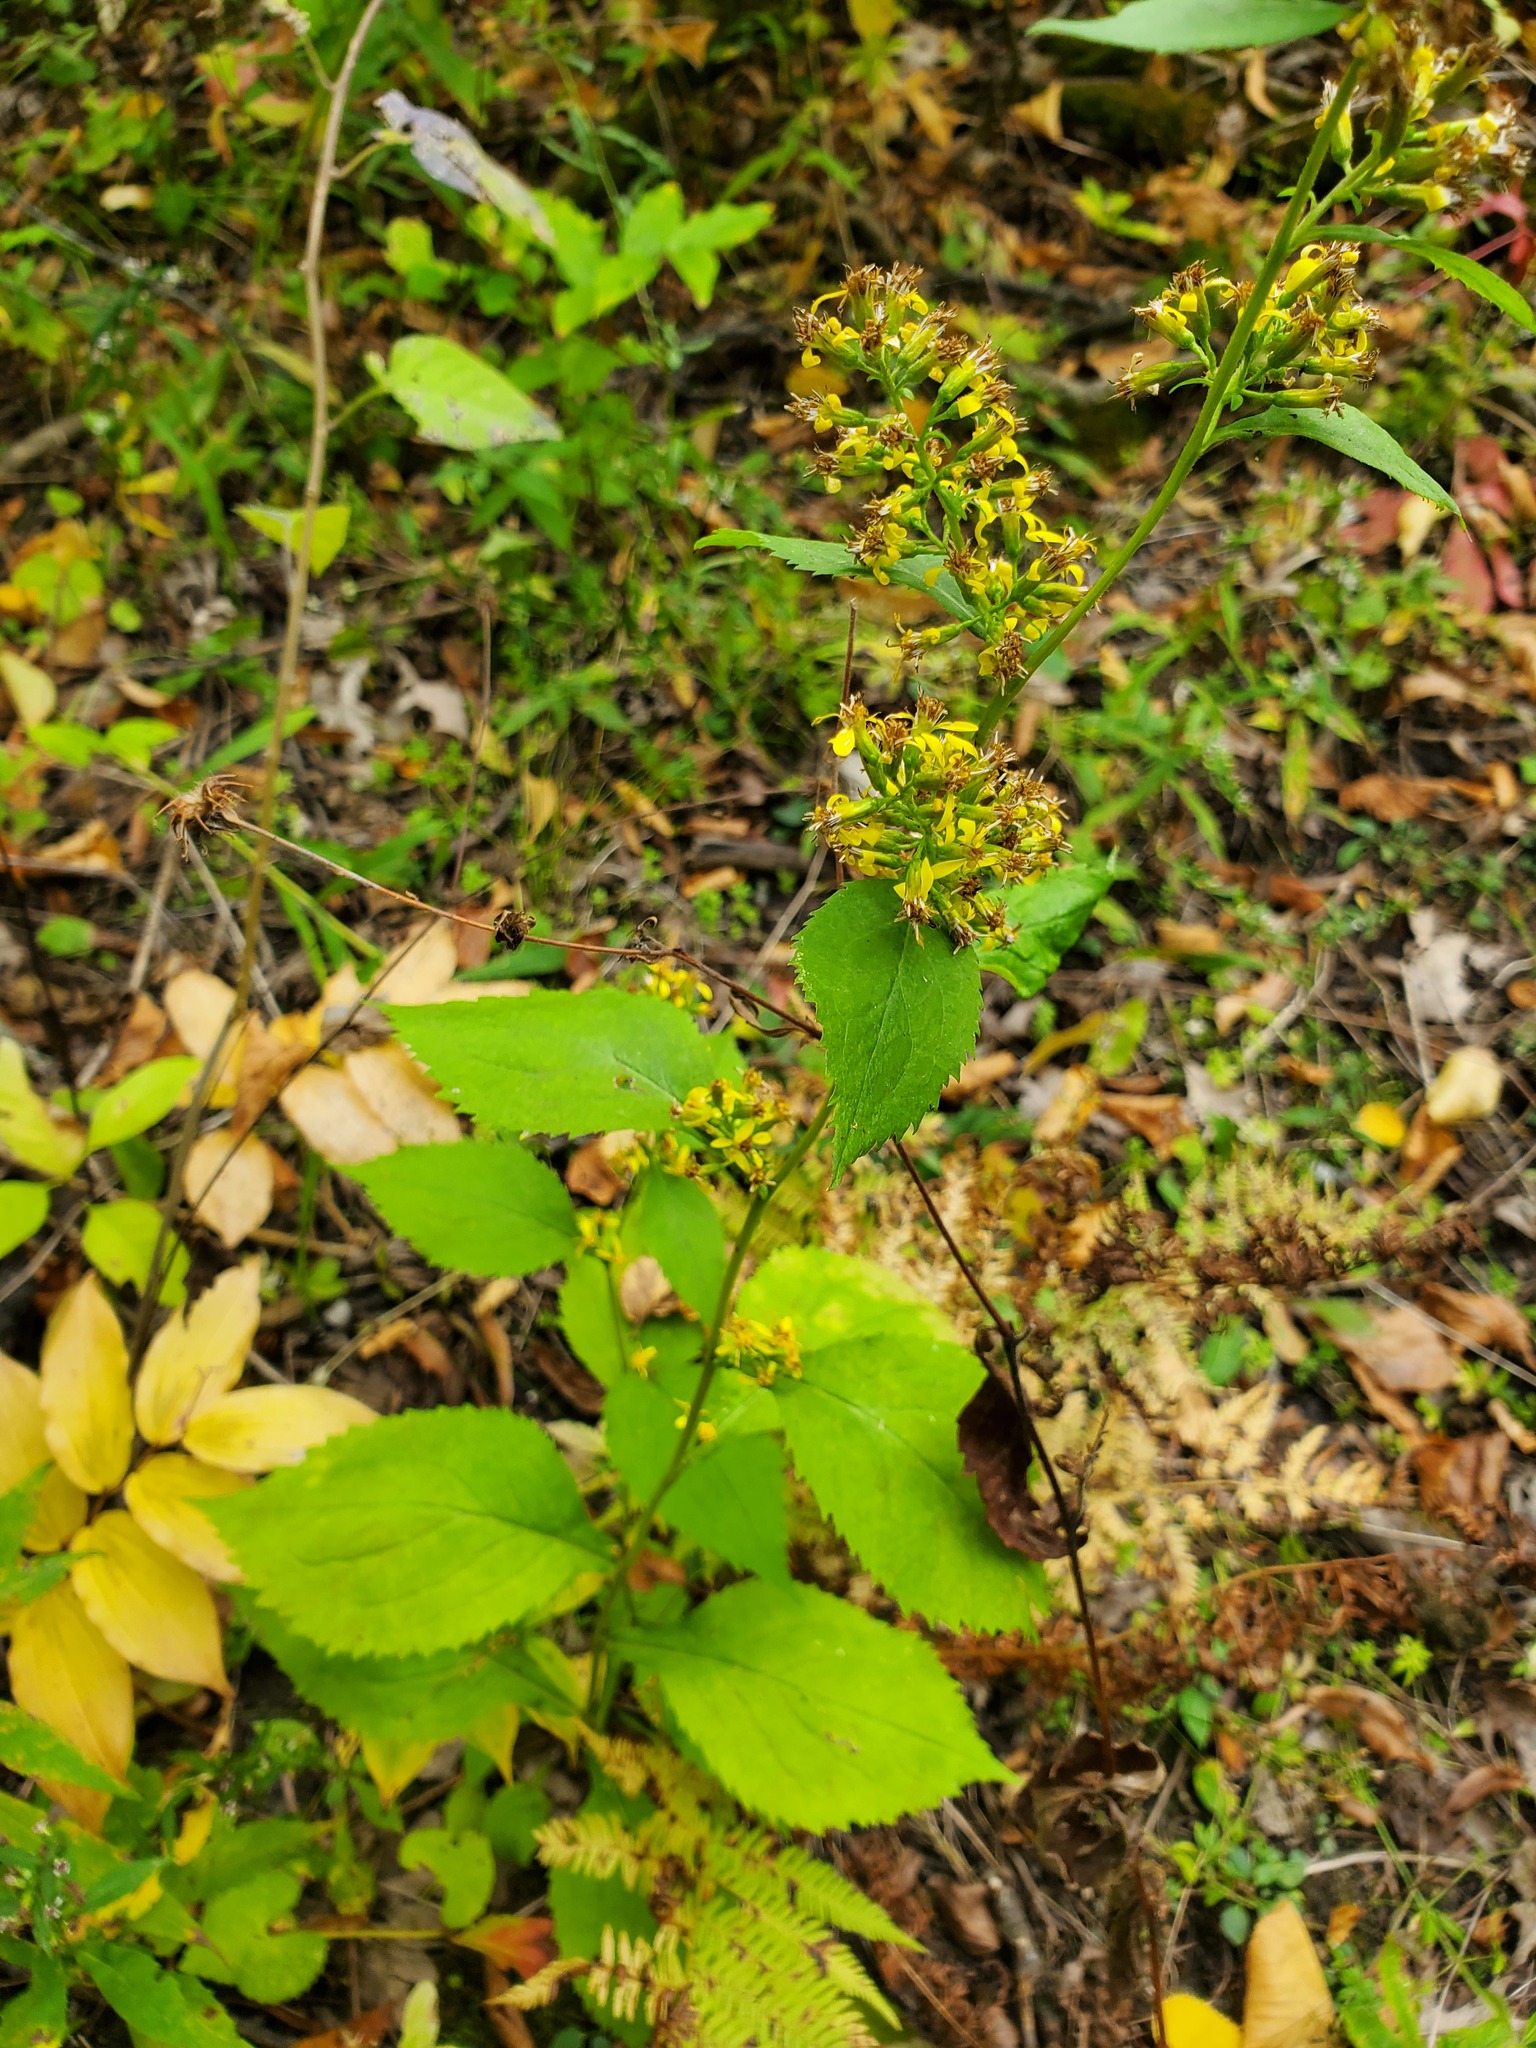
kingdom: Plantae
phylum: Tracheophyta
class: Magnoliopsida
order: Asterales
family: Asteraceae
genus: Solidago
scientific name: Solidago flexicaulis
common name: Zig-zag goldenrod
